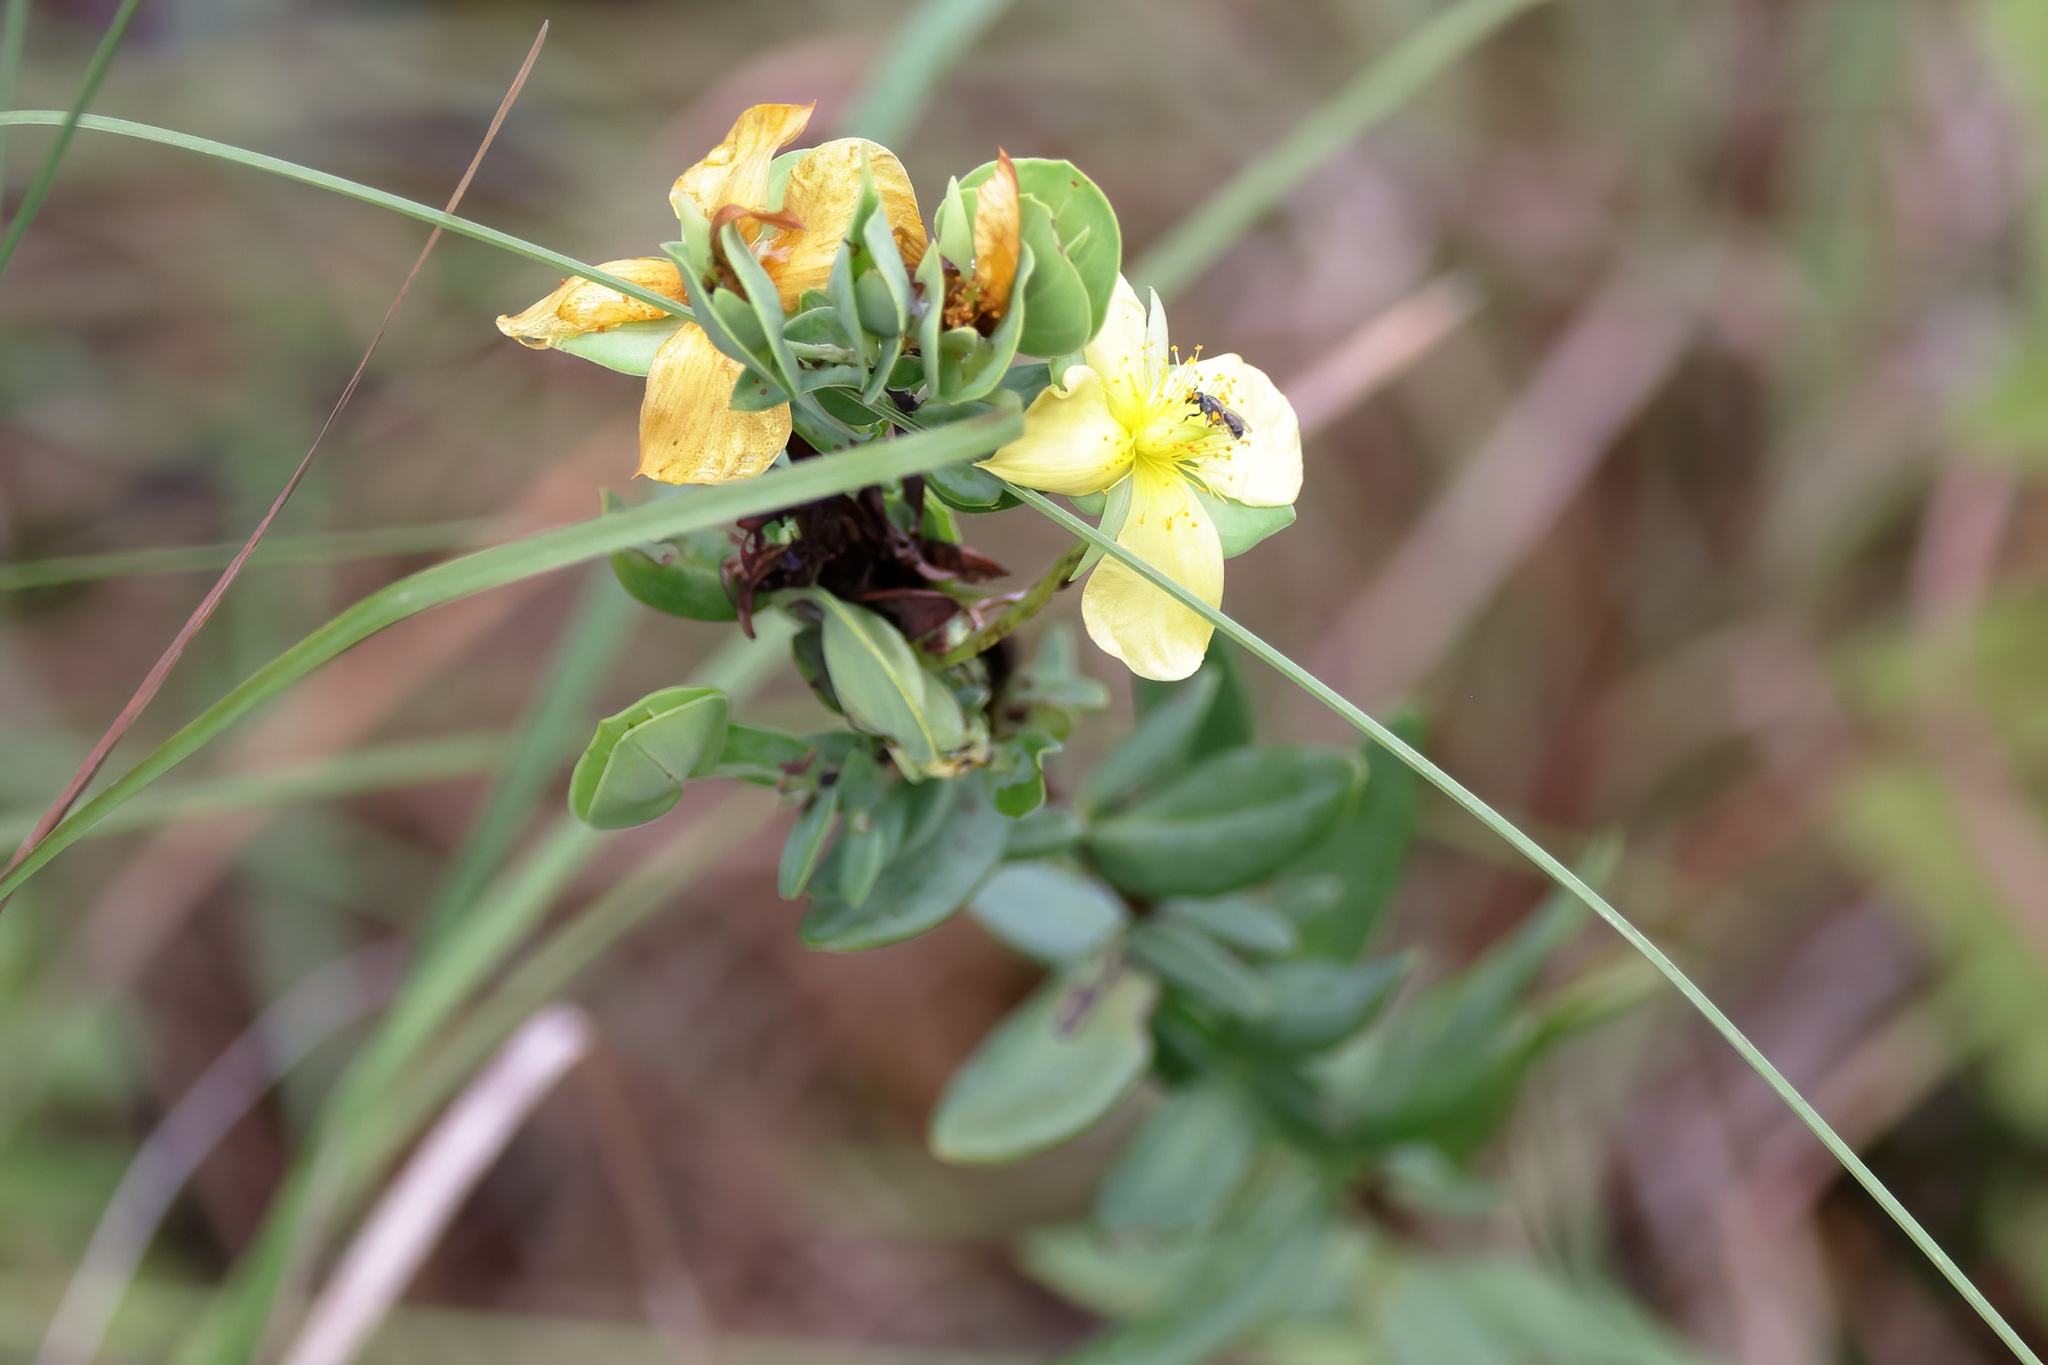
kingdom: Plantae
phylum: Tracheophyta
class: Magnoliopsida
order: Malpighiales
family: Hypericaceae
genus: Hypericum
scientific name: Hypericum crux-andreae
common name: St.-peter's-wort
